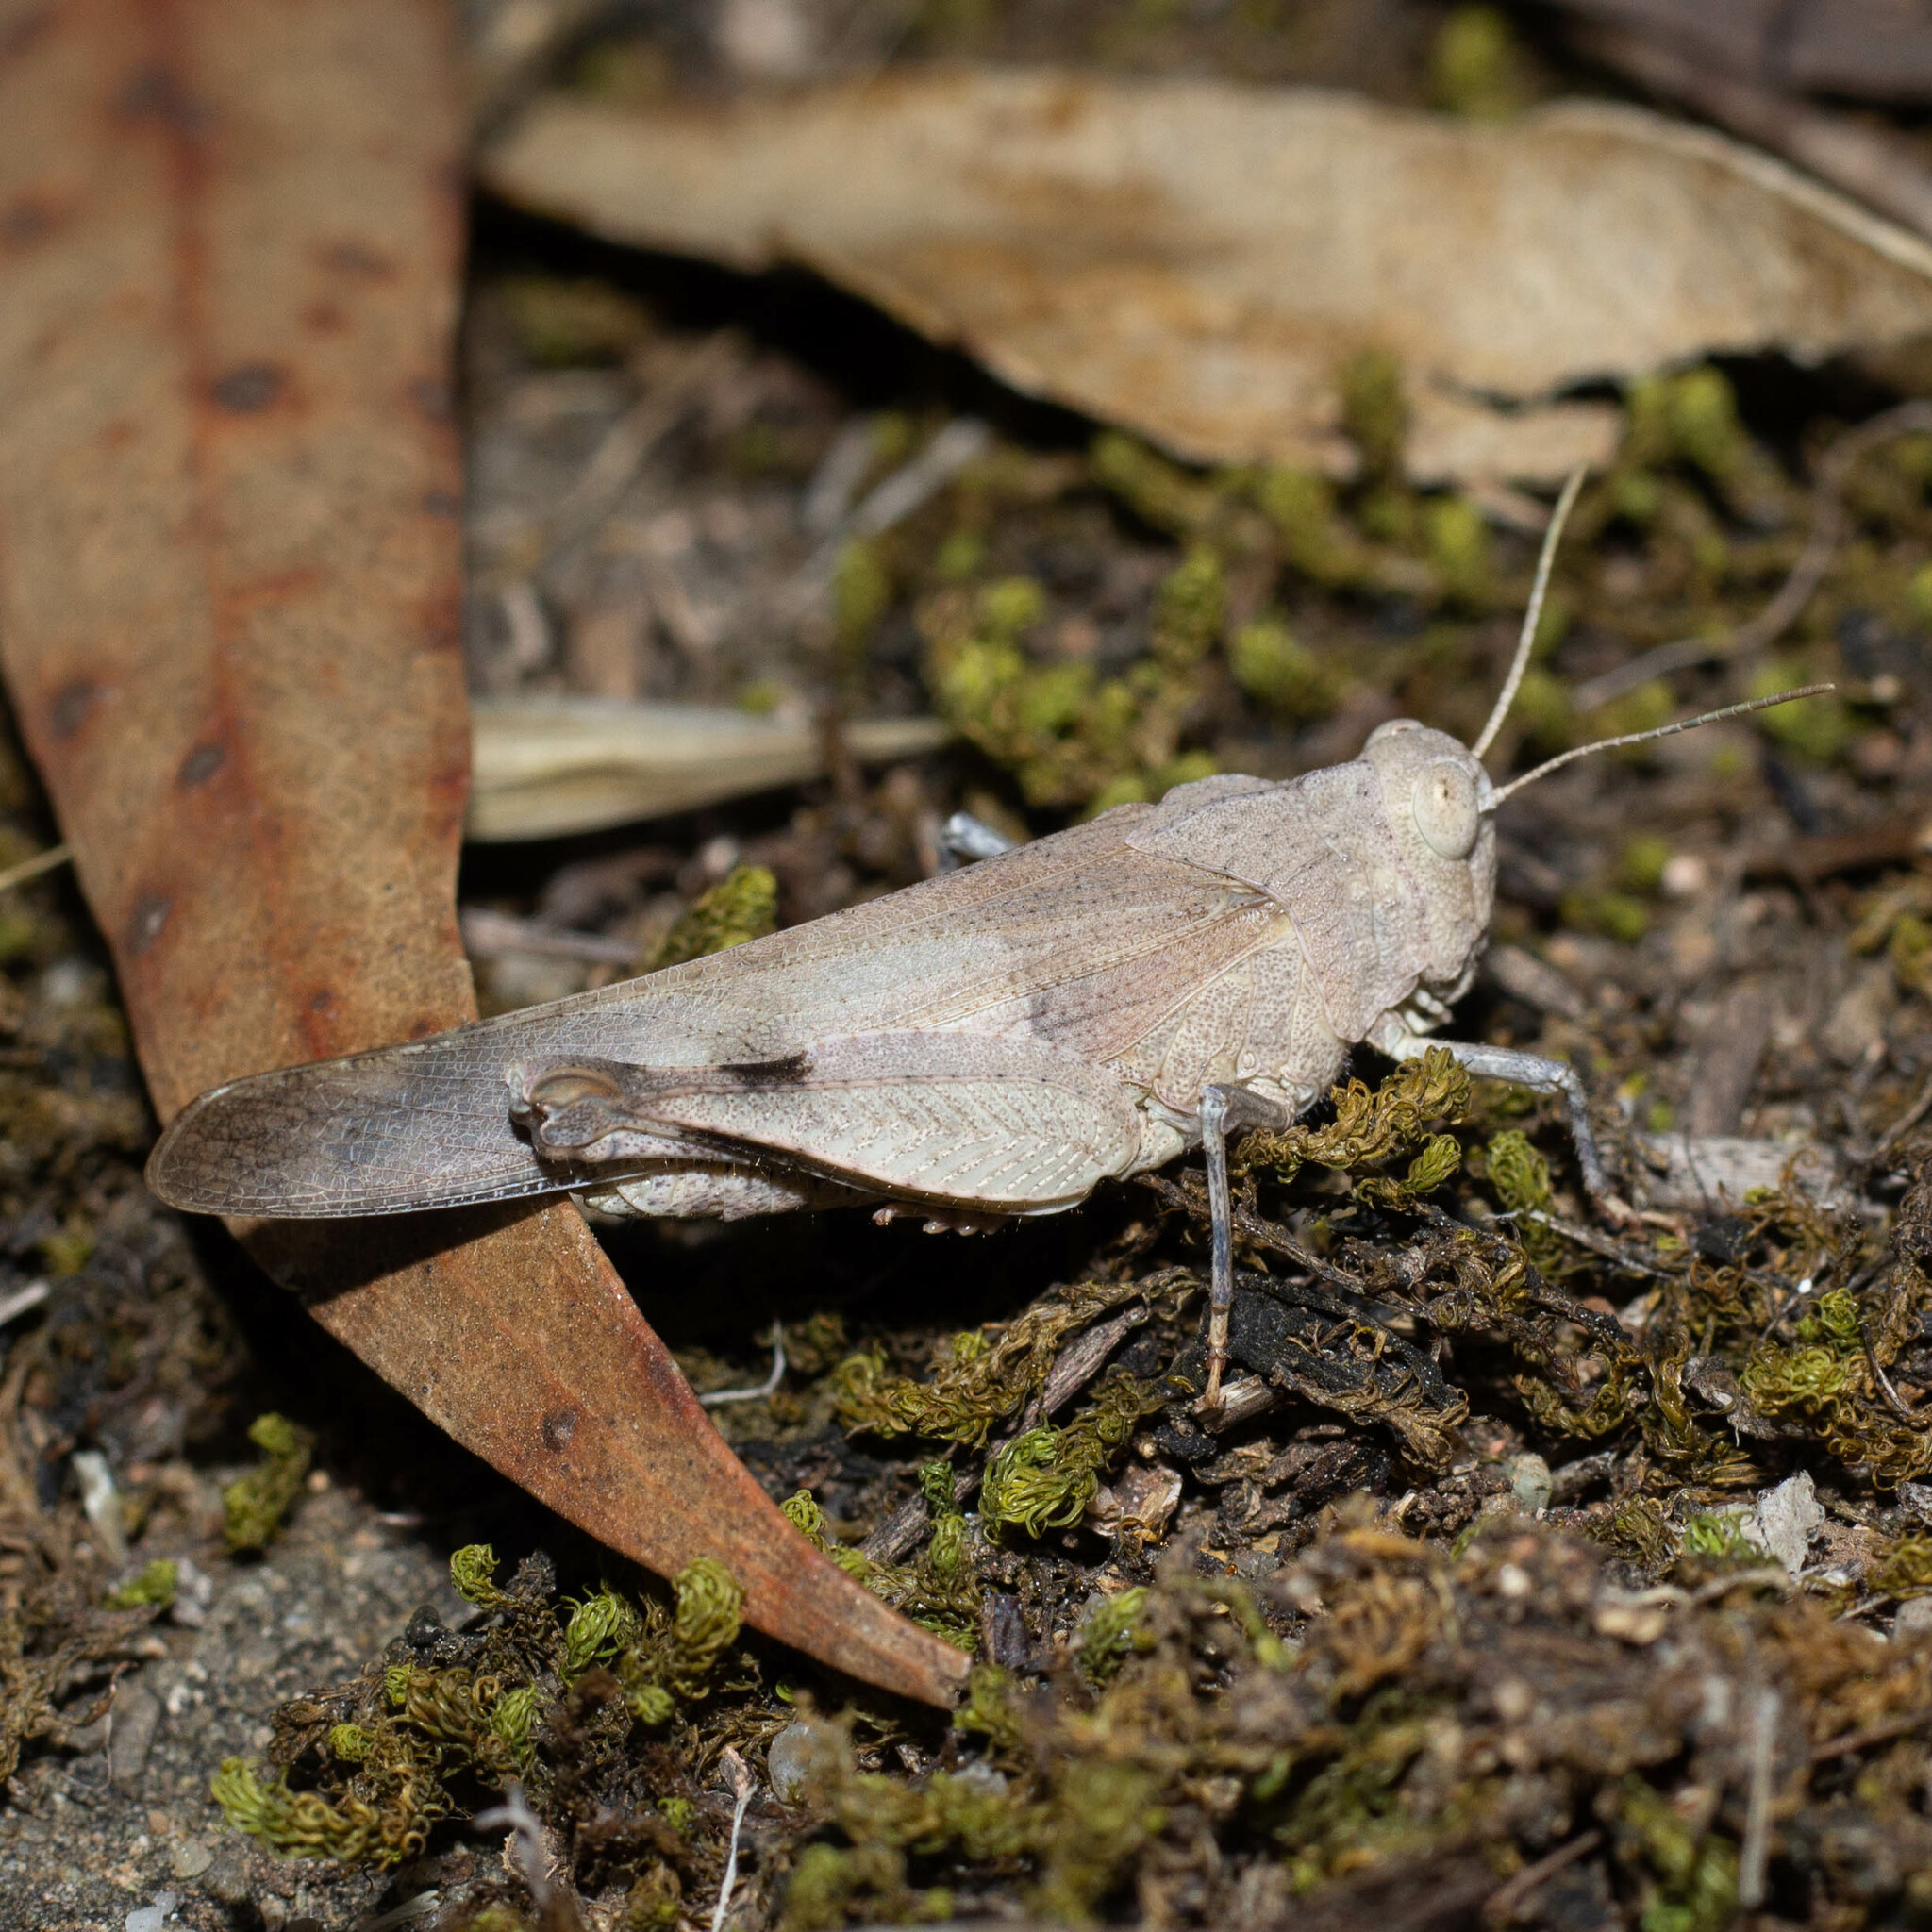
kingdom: Animalia
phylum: Arthropoda
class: Insecta
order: Orthoptera
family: Acrididae
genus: Oedipoda
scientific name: Oedipoda caerulescens
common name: Blue-winged grasshopper
